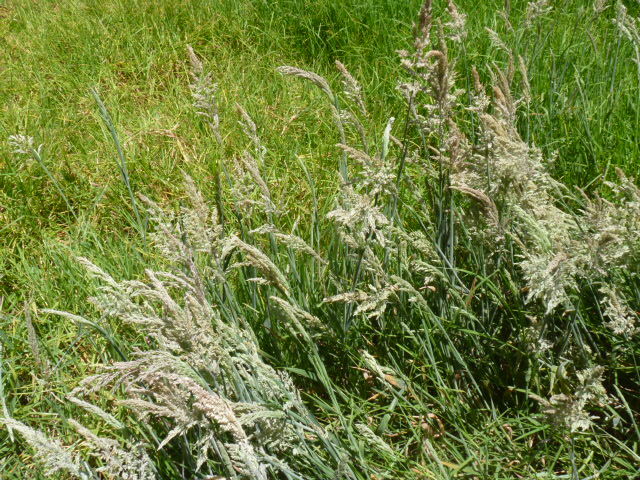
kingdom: Plantae
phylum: Tracheophyta
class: Liliopsida
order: Poales
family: Poaceae
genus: Holcus
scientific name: Holcus lanatus
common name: Yorkshire-fog
